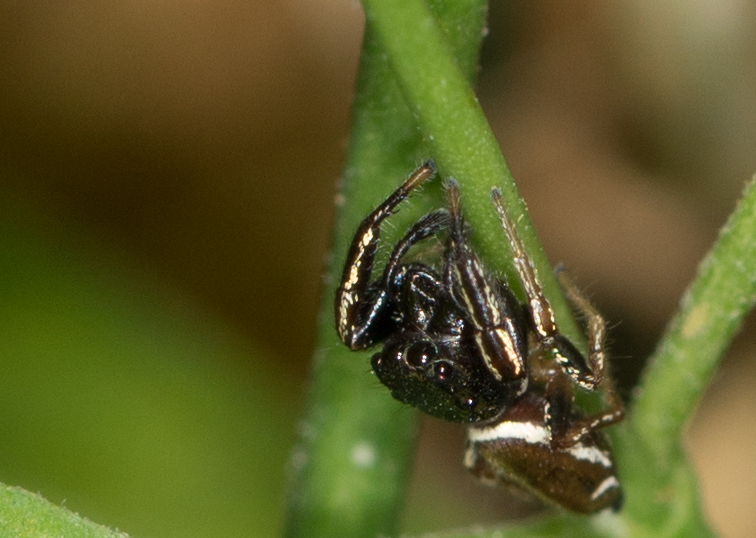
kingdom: Animalia
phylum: Arthropoda
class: Arachnida
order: Araneae
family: Salticidae
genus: Sassacus
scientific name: Sassacus vitis
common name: Jumping spiders
